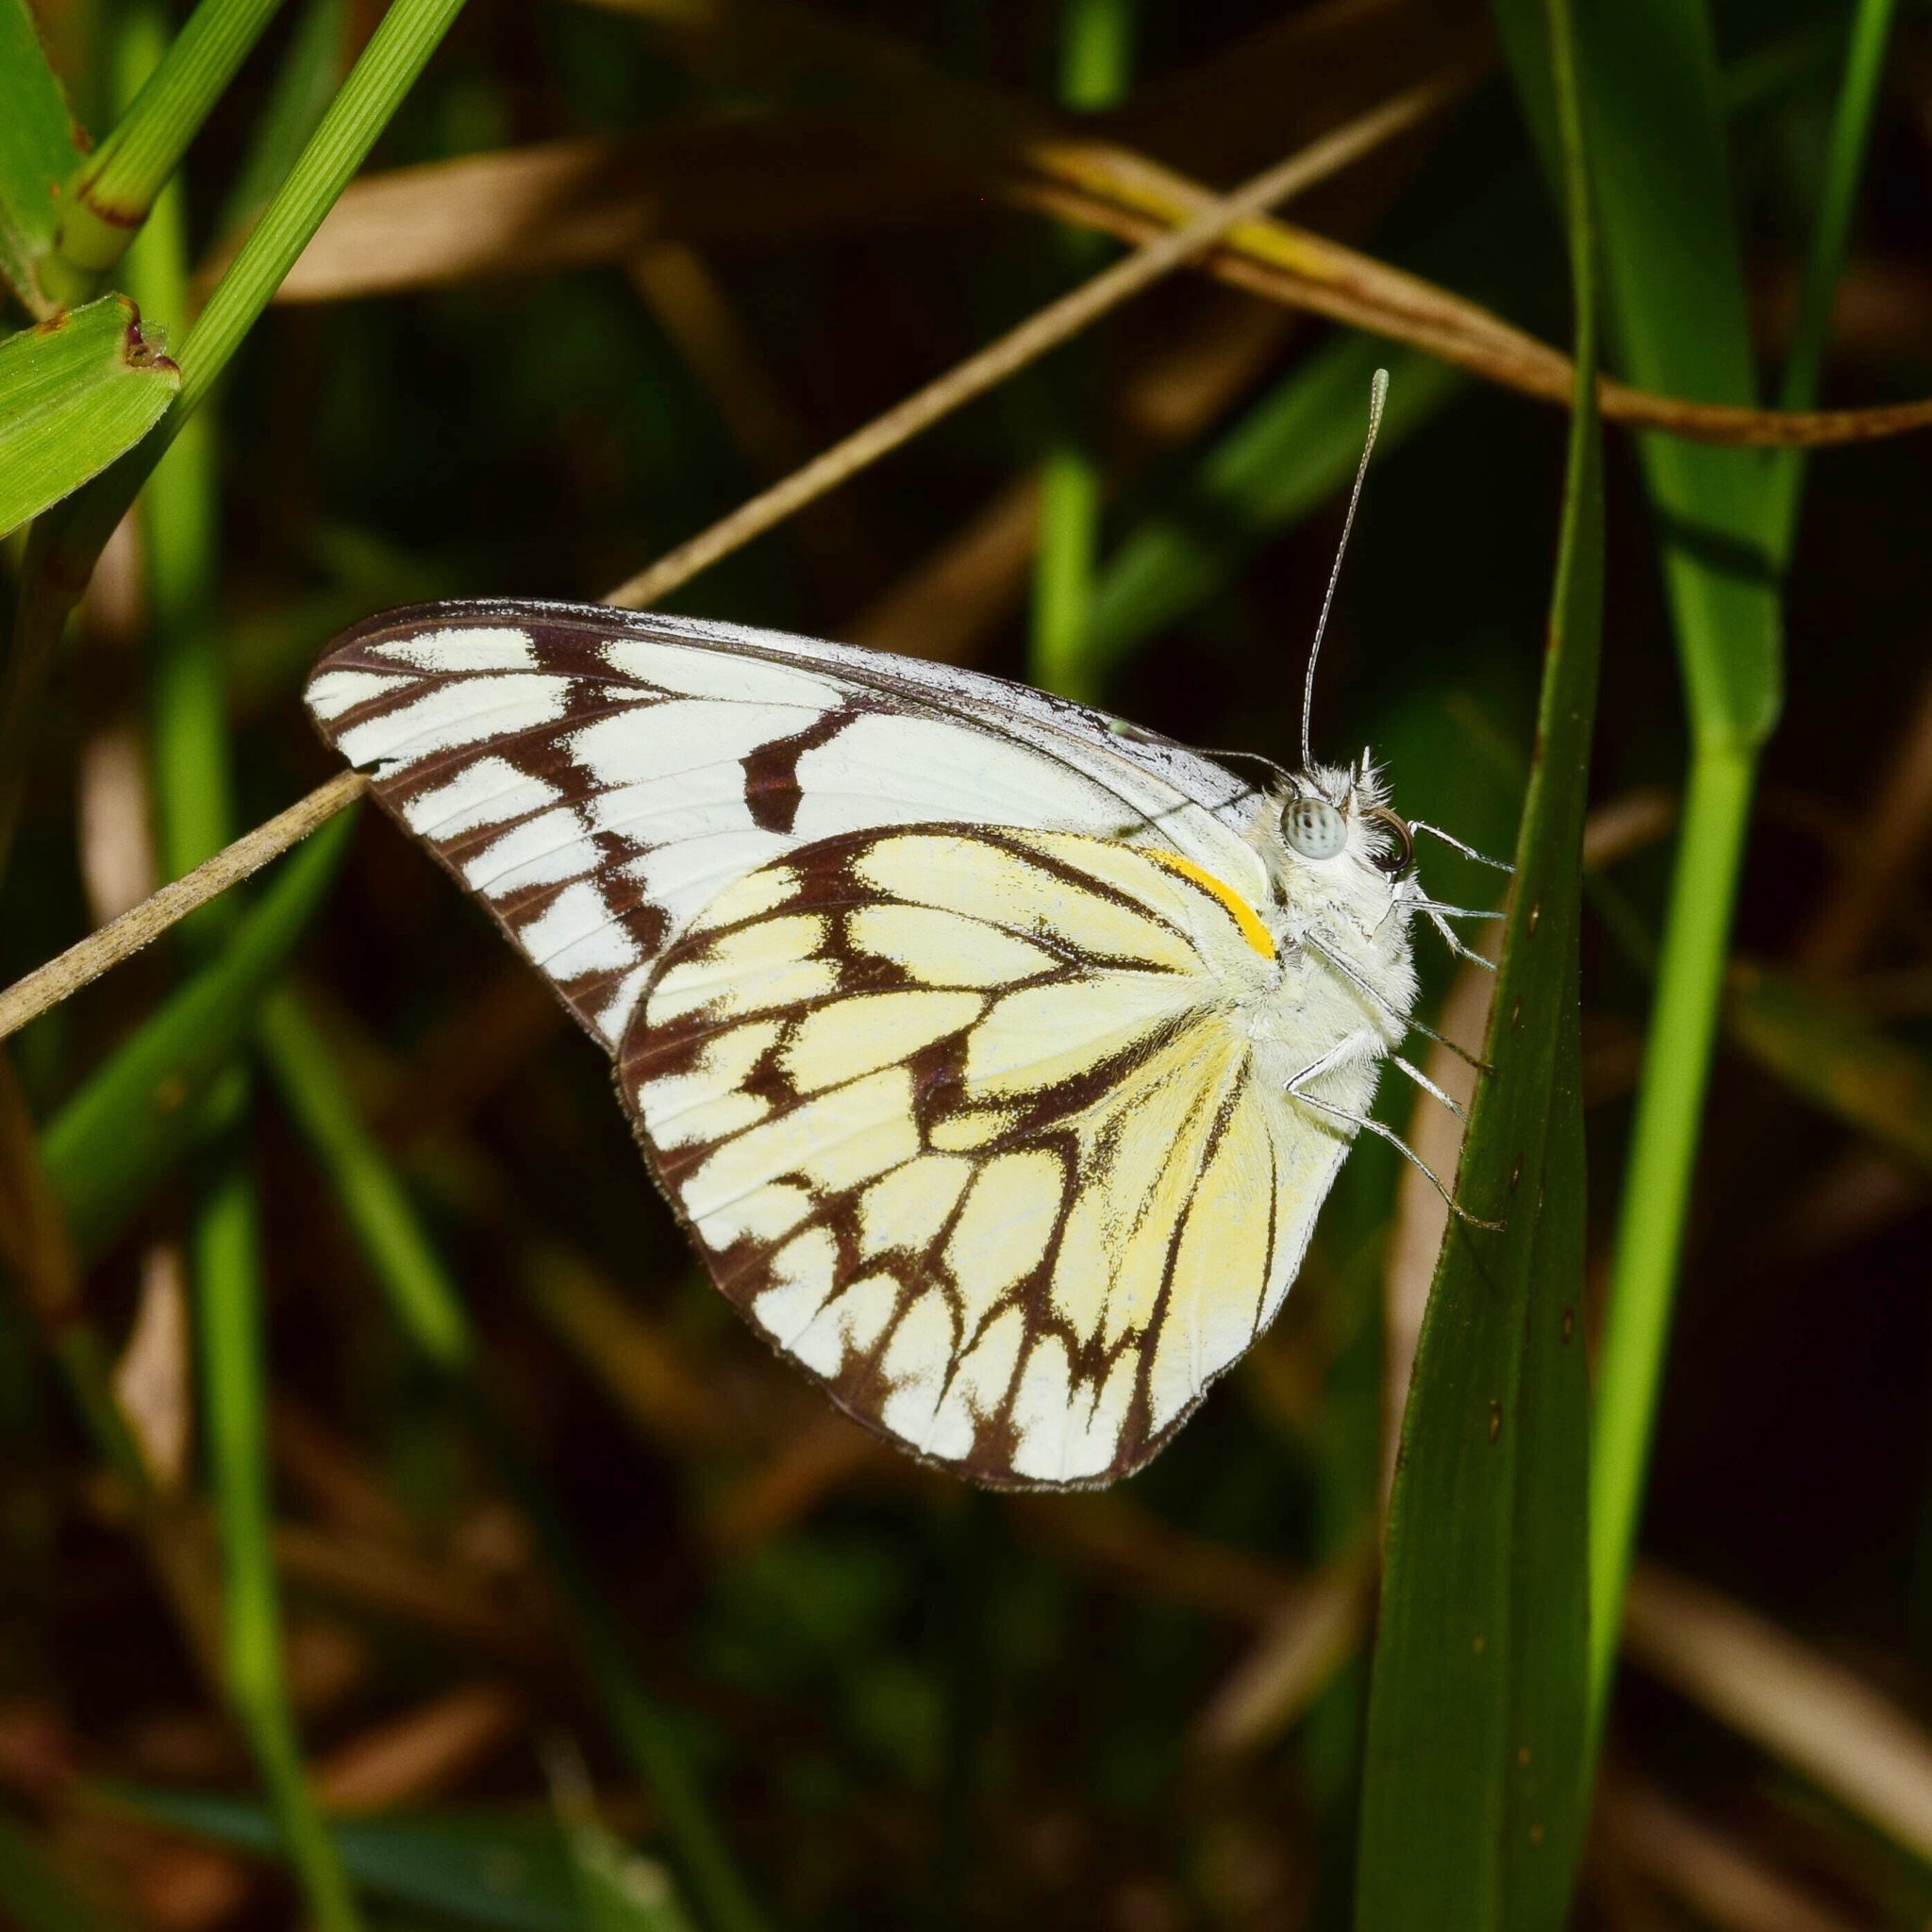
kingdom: Animalia
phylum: Arthropoda
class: Insecta
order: Lepidoptera
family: Pieridae
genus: Belenois
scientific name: Belenois gidica
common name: Pointed caper white
